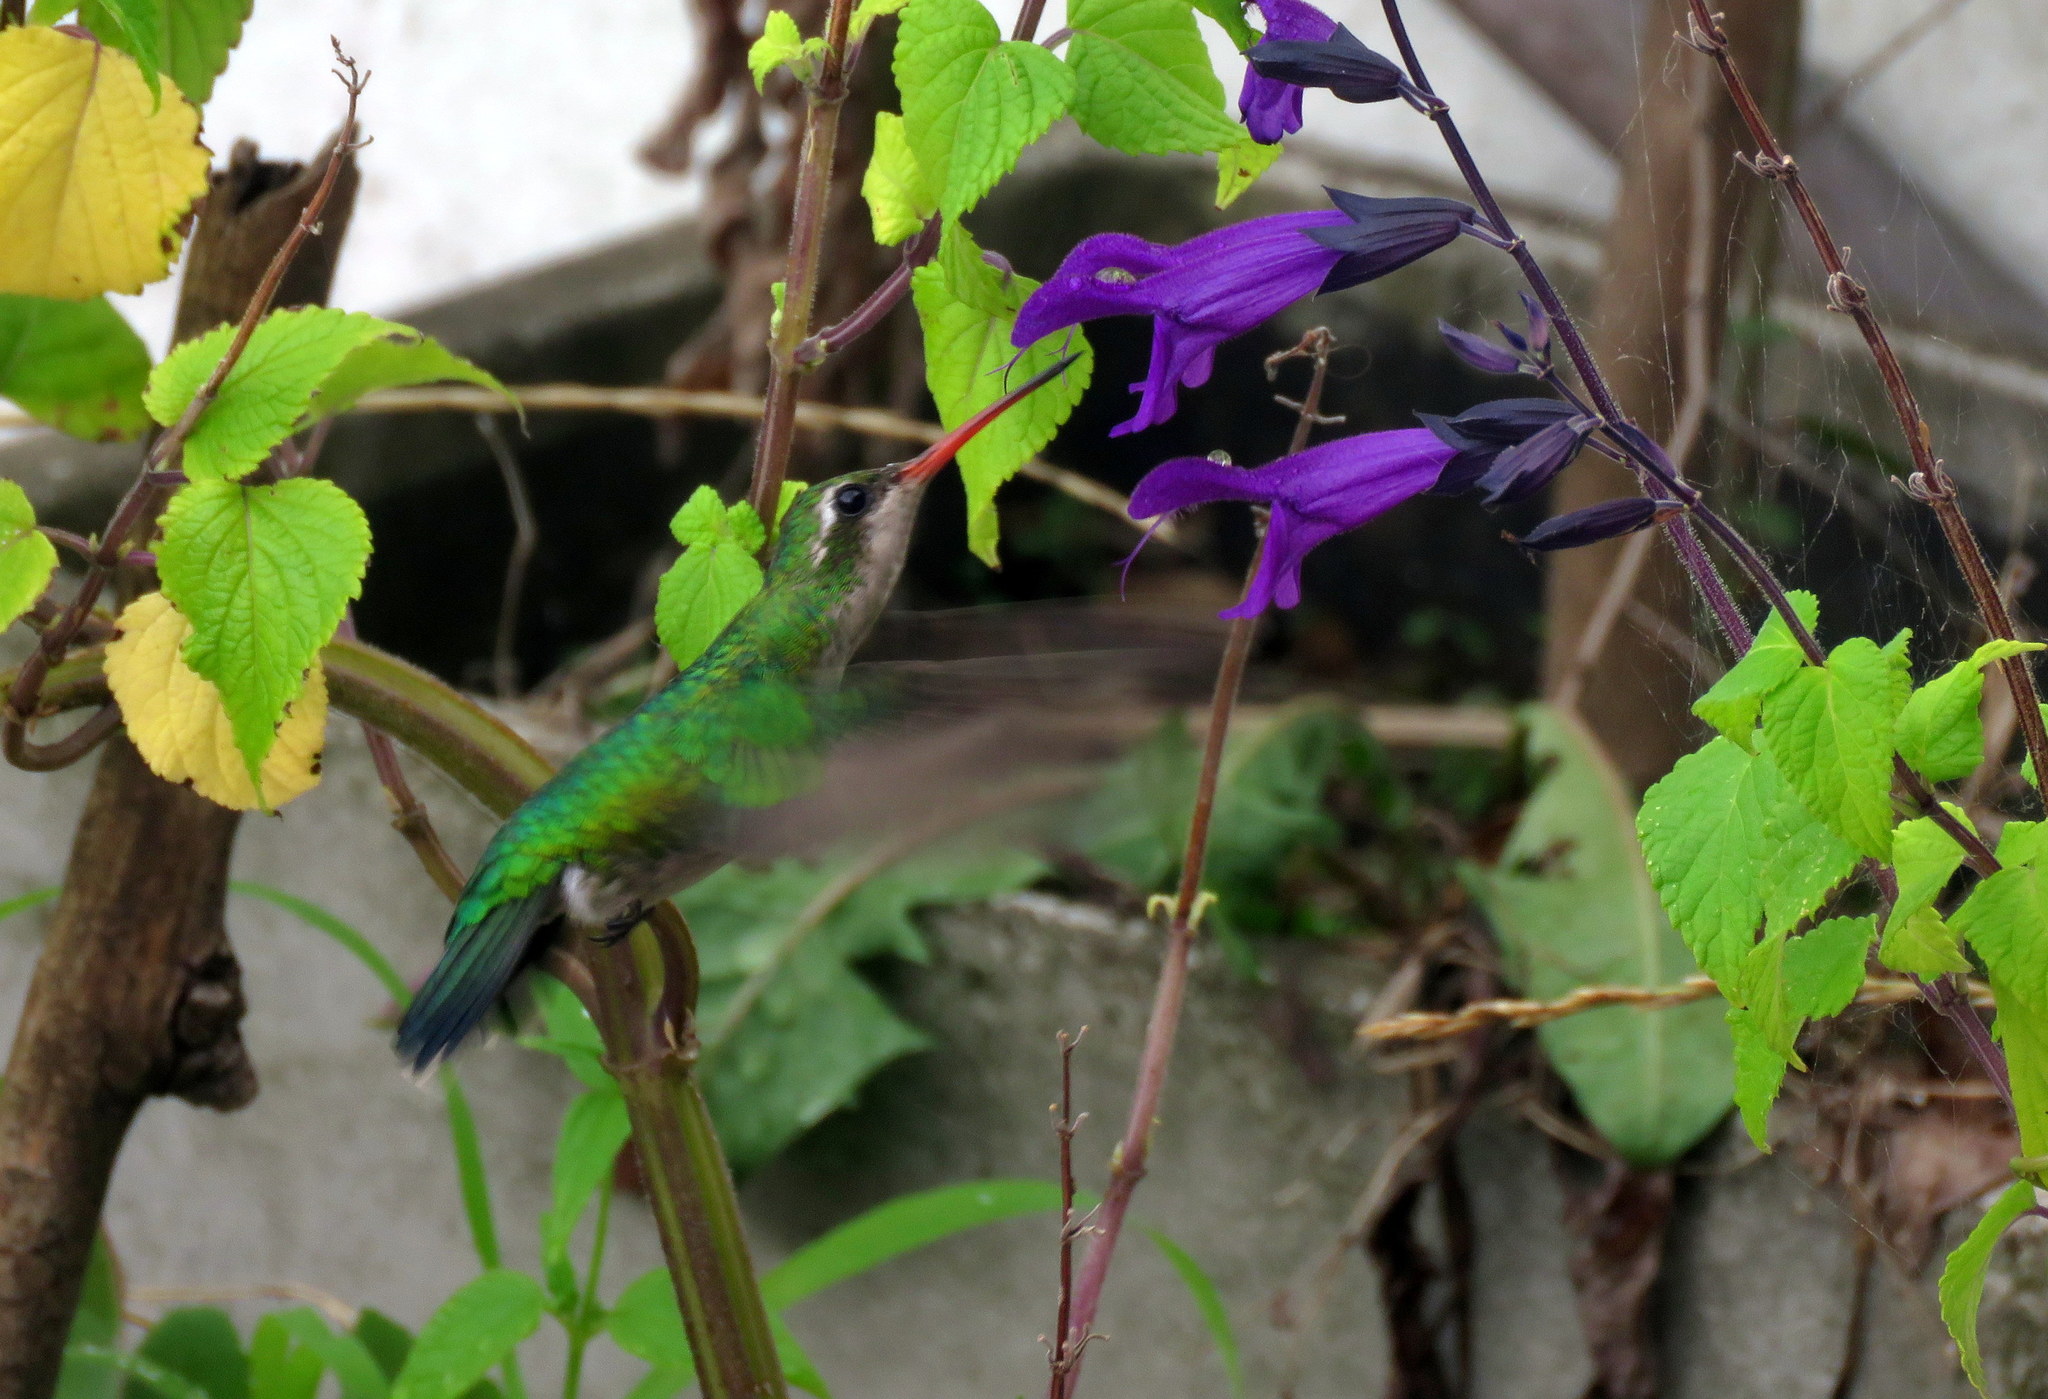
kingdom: Animalia
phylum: Chordata
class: Aves
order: Apodiformes
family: Trochilidae
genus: Chlorostilbon
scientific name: Chlorostilbon lucidus
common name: Glittering-bellied emerald
